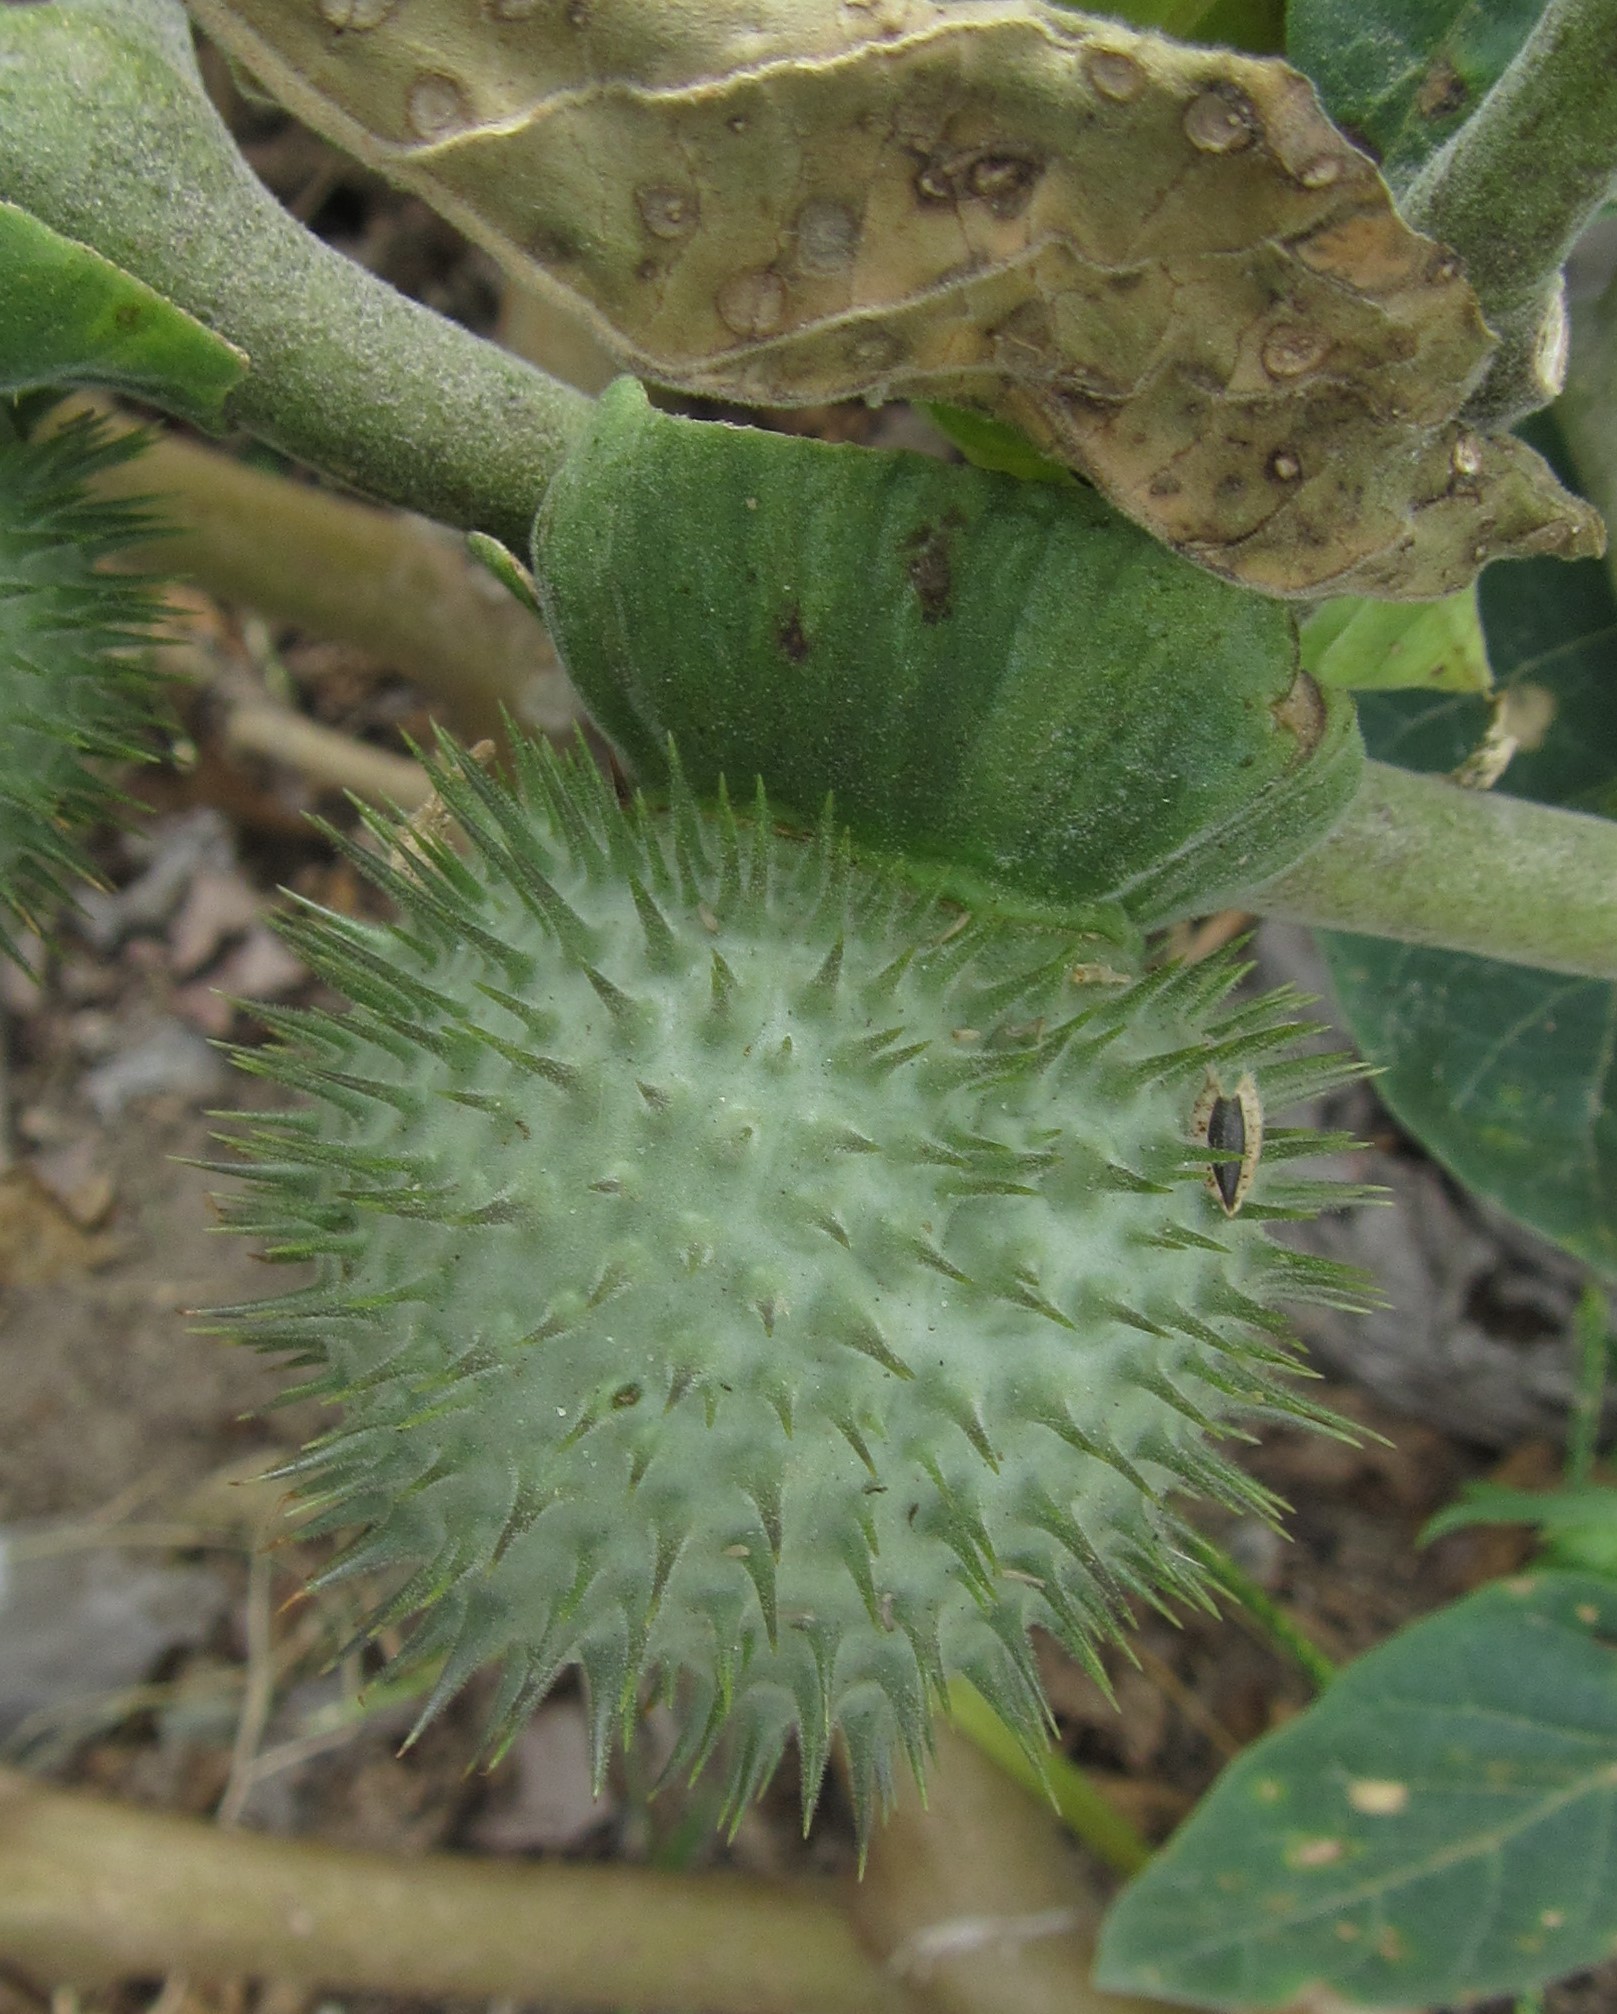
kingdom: Plantae
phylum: Tracheophyta
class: Magnoliopsida
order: Solanales
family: Solanaceae
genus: Datura
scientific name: Datura innoxia
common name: Downy thorn-apple
